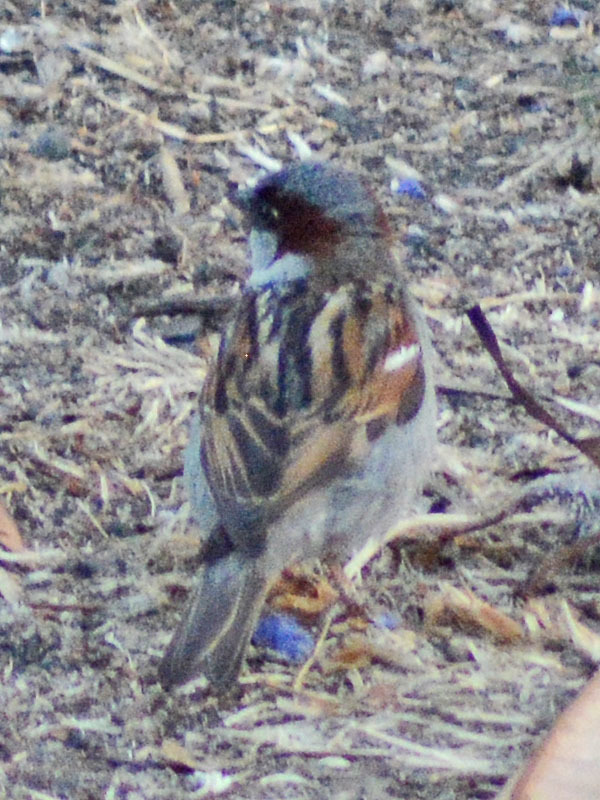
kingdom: Animalia
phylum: Chordata
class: Aves
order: Passeriformes
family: Passeridae
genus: Passer
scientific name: Passer domesticus
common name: House sparrow
